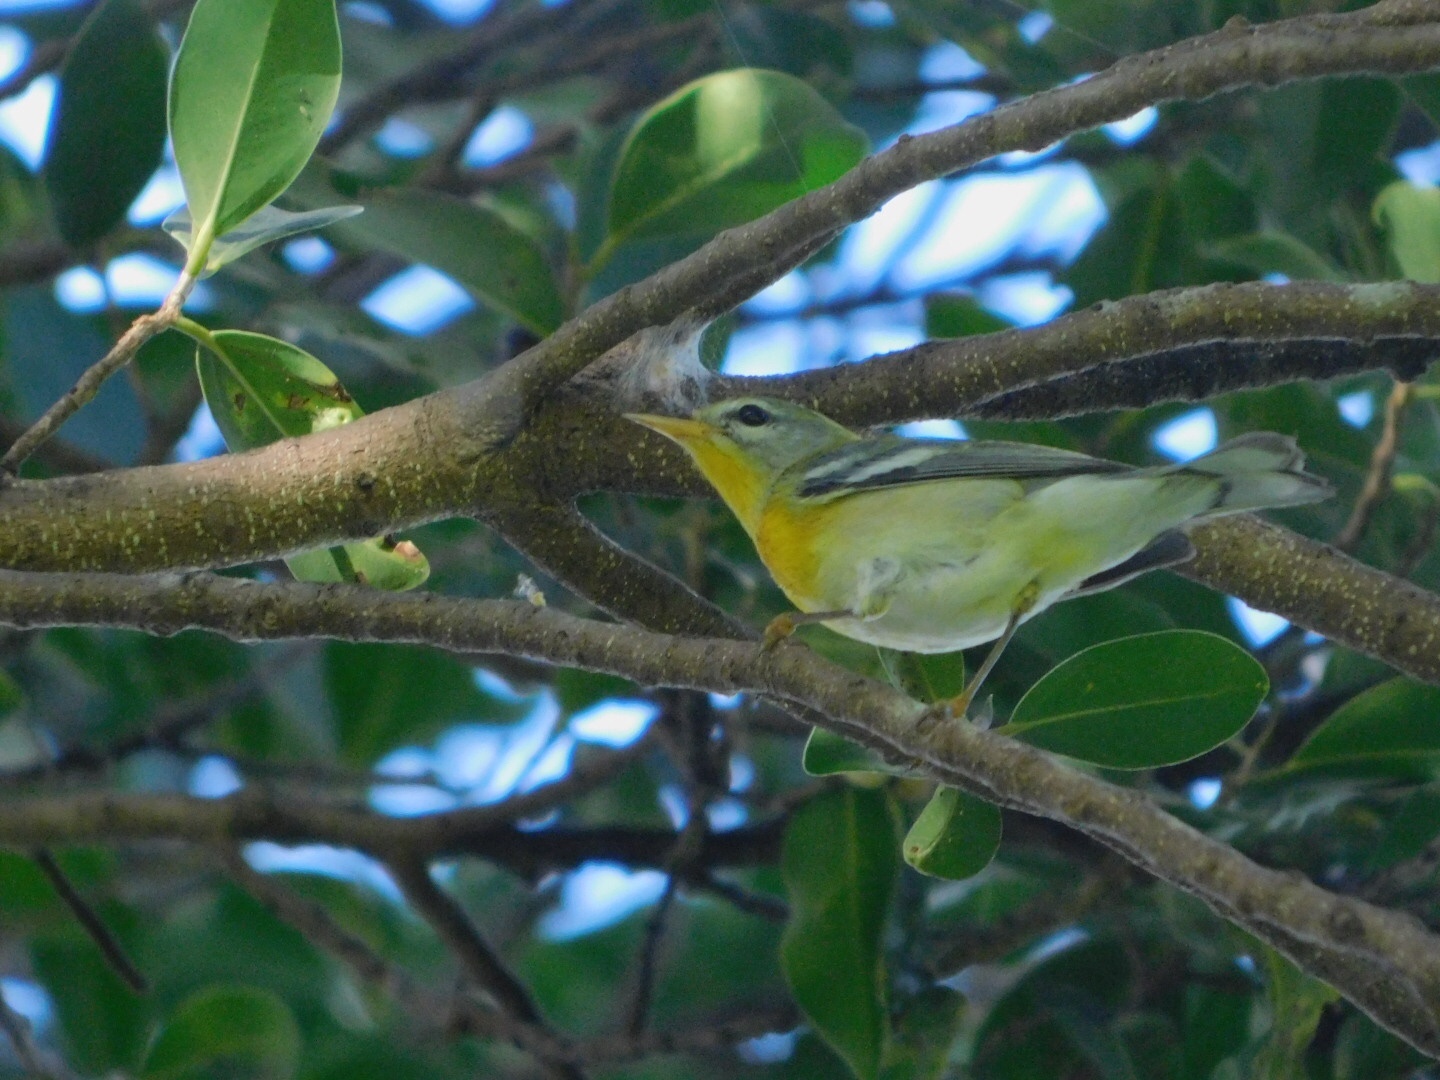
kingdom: Animalia
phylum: Chordata
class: Aves
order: Passeriformes
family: Parulidae
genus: Setophaga
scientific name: Setophaga americana
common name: Northern parula
